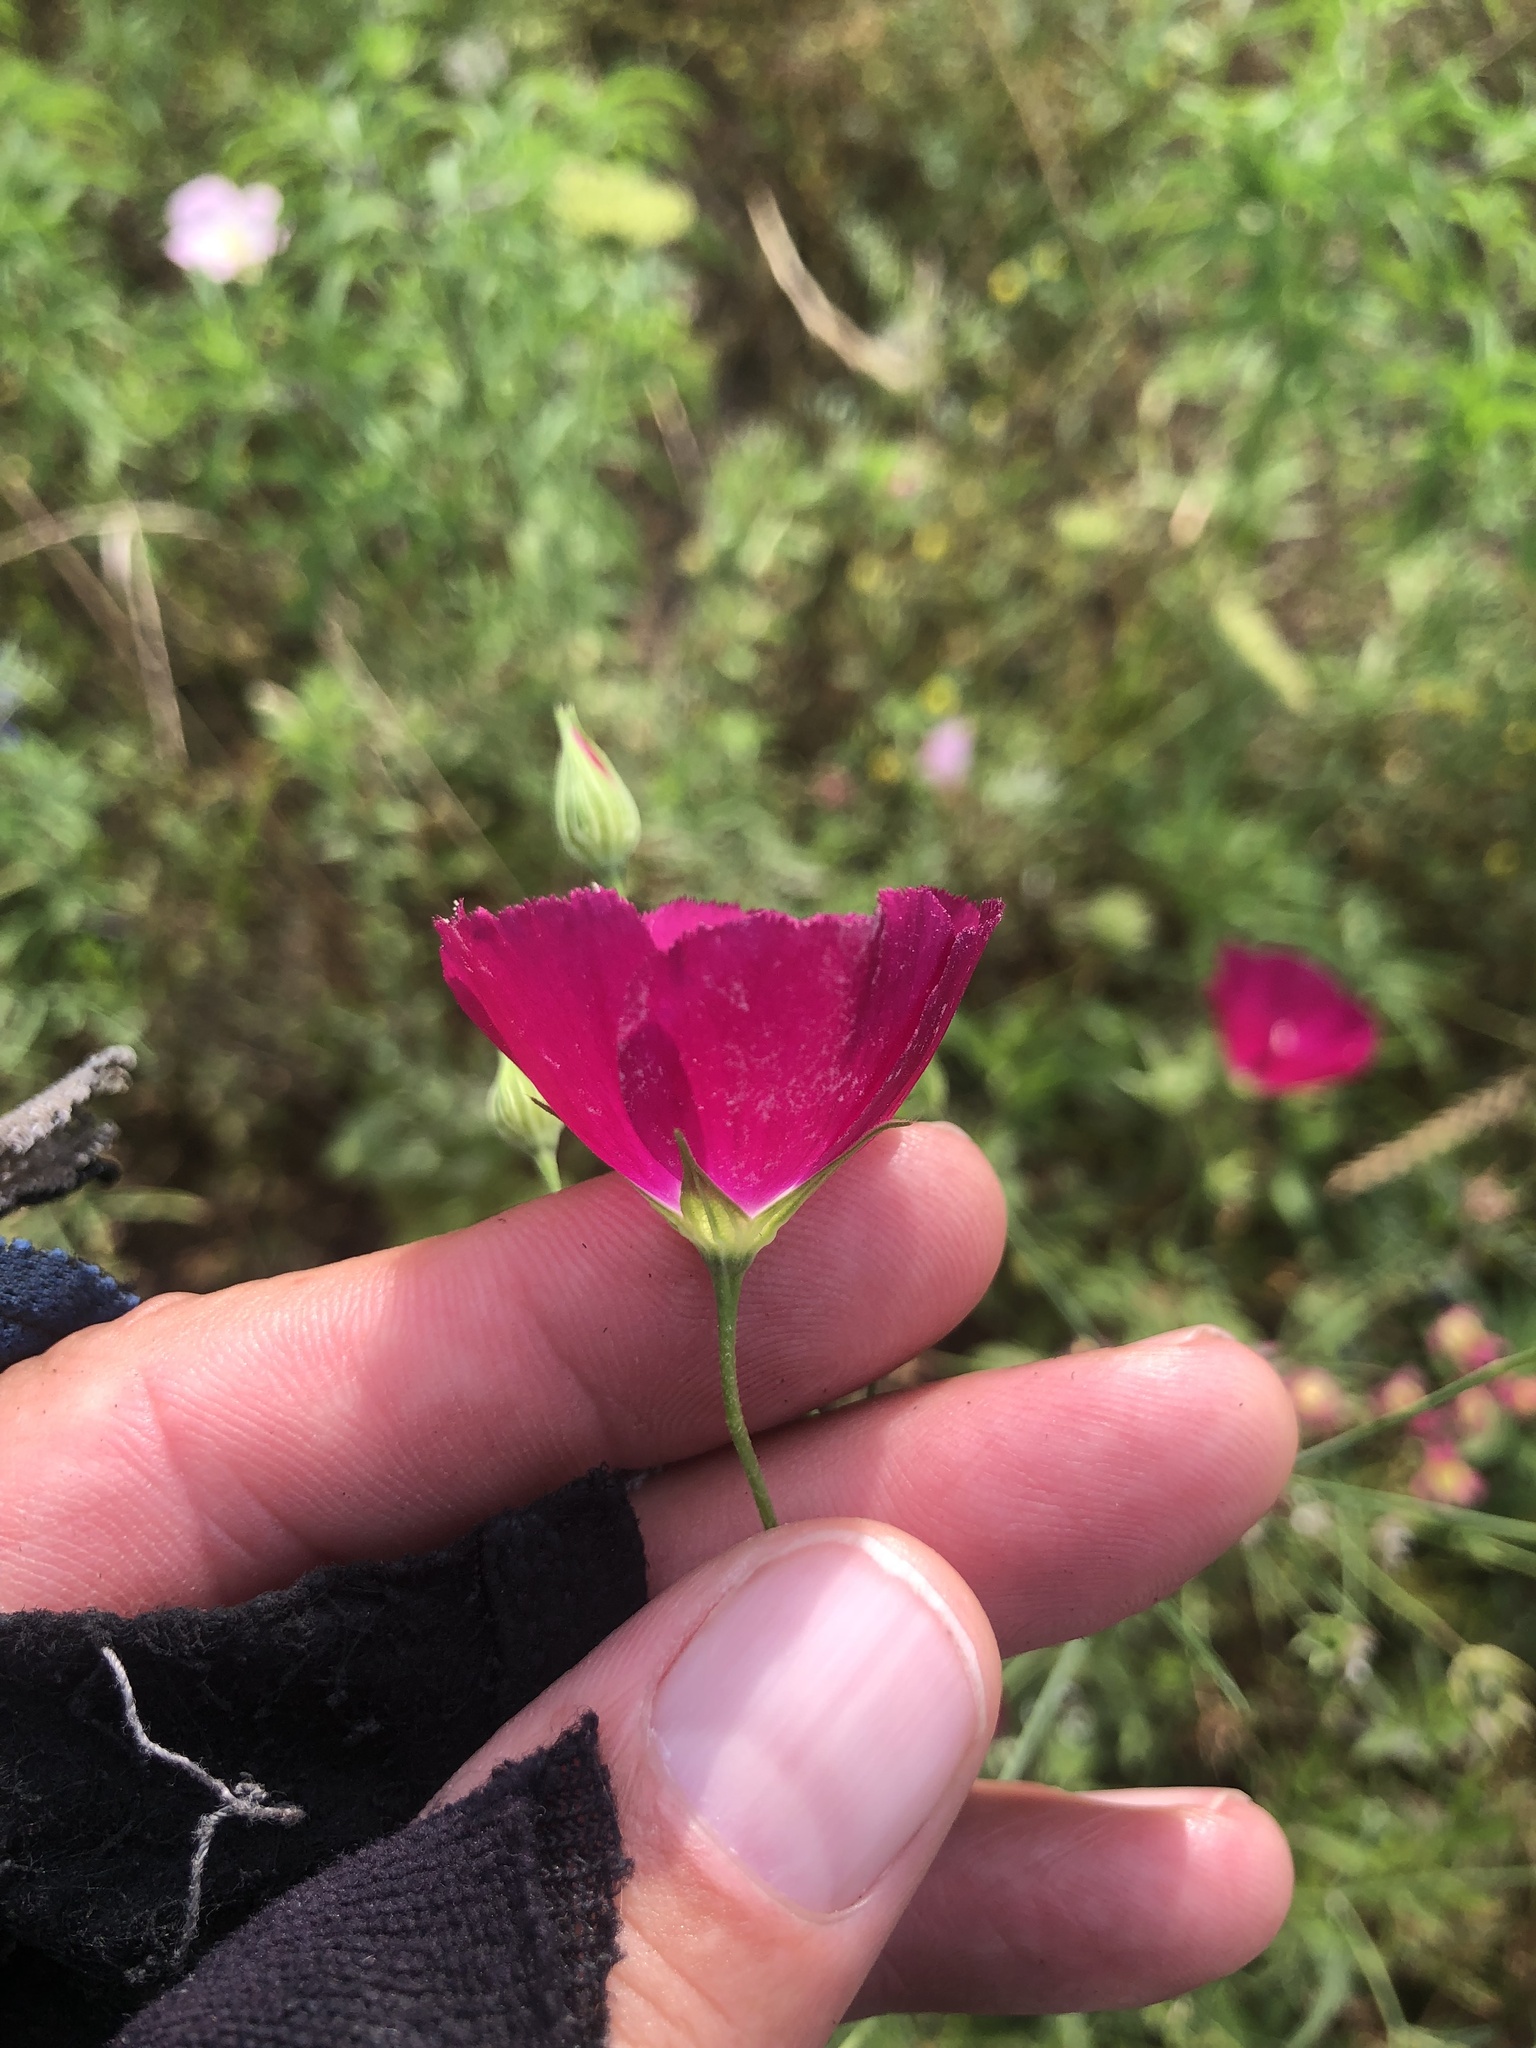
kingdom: Plantae
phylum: Tracheophyta
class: Magnoliopsida
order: Malvales
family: Malvaceae
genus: Callirhoe
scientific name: Callirhoe leiocarpa
